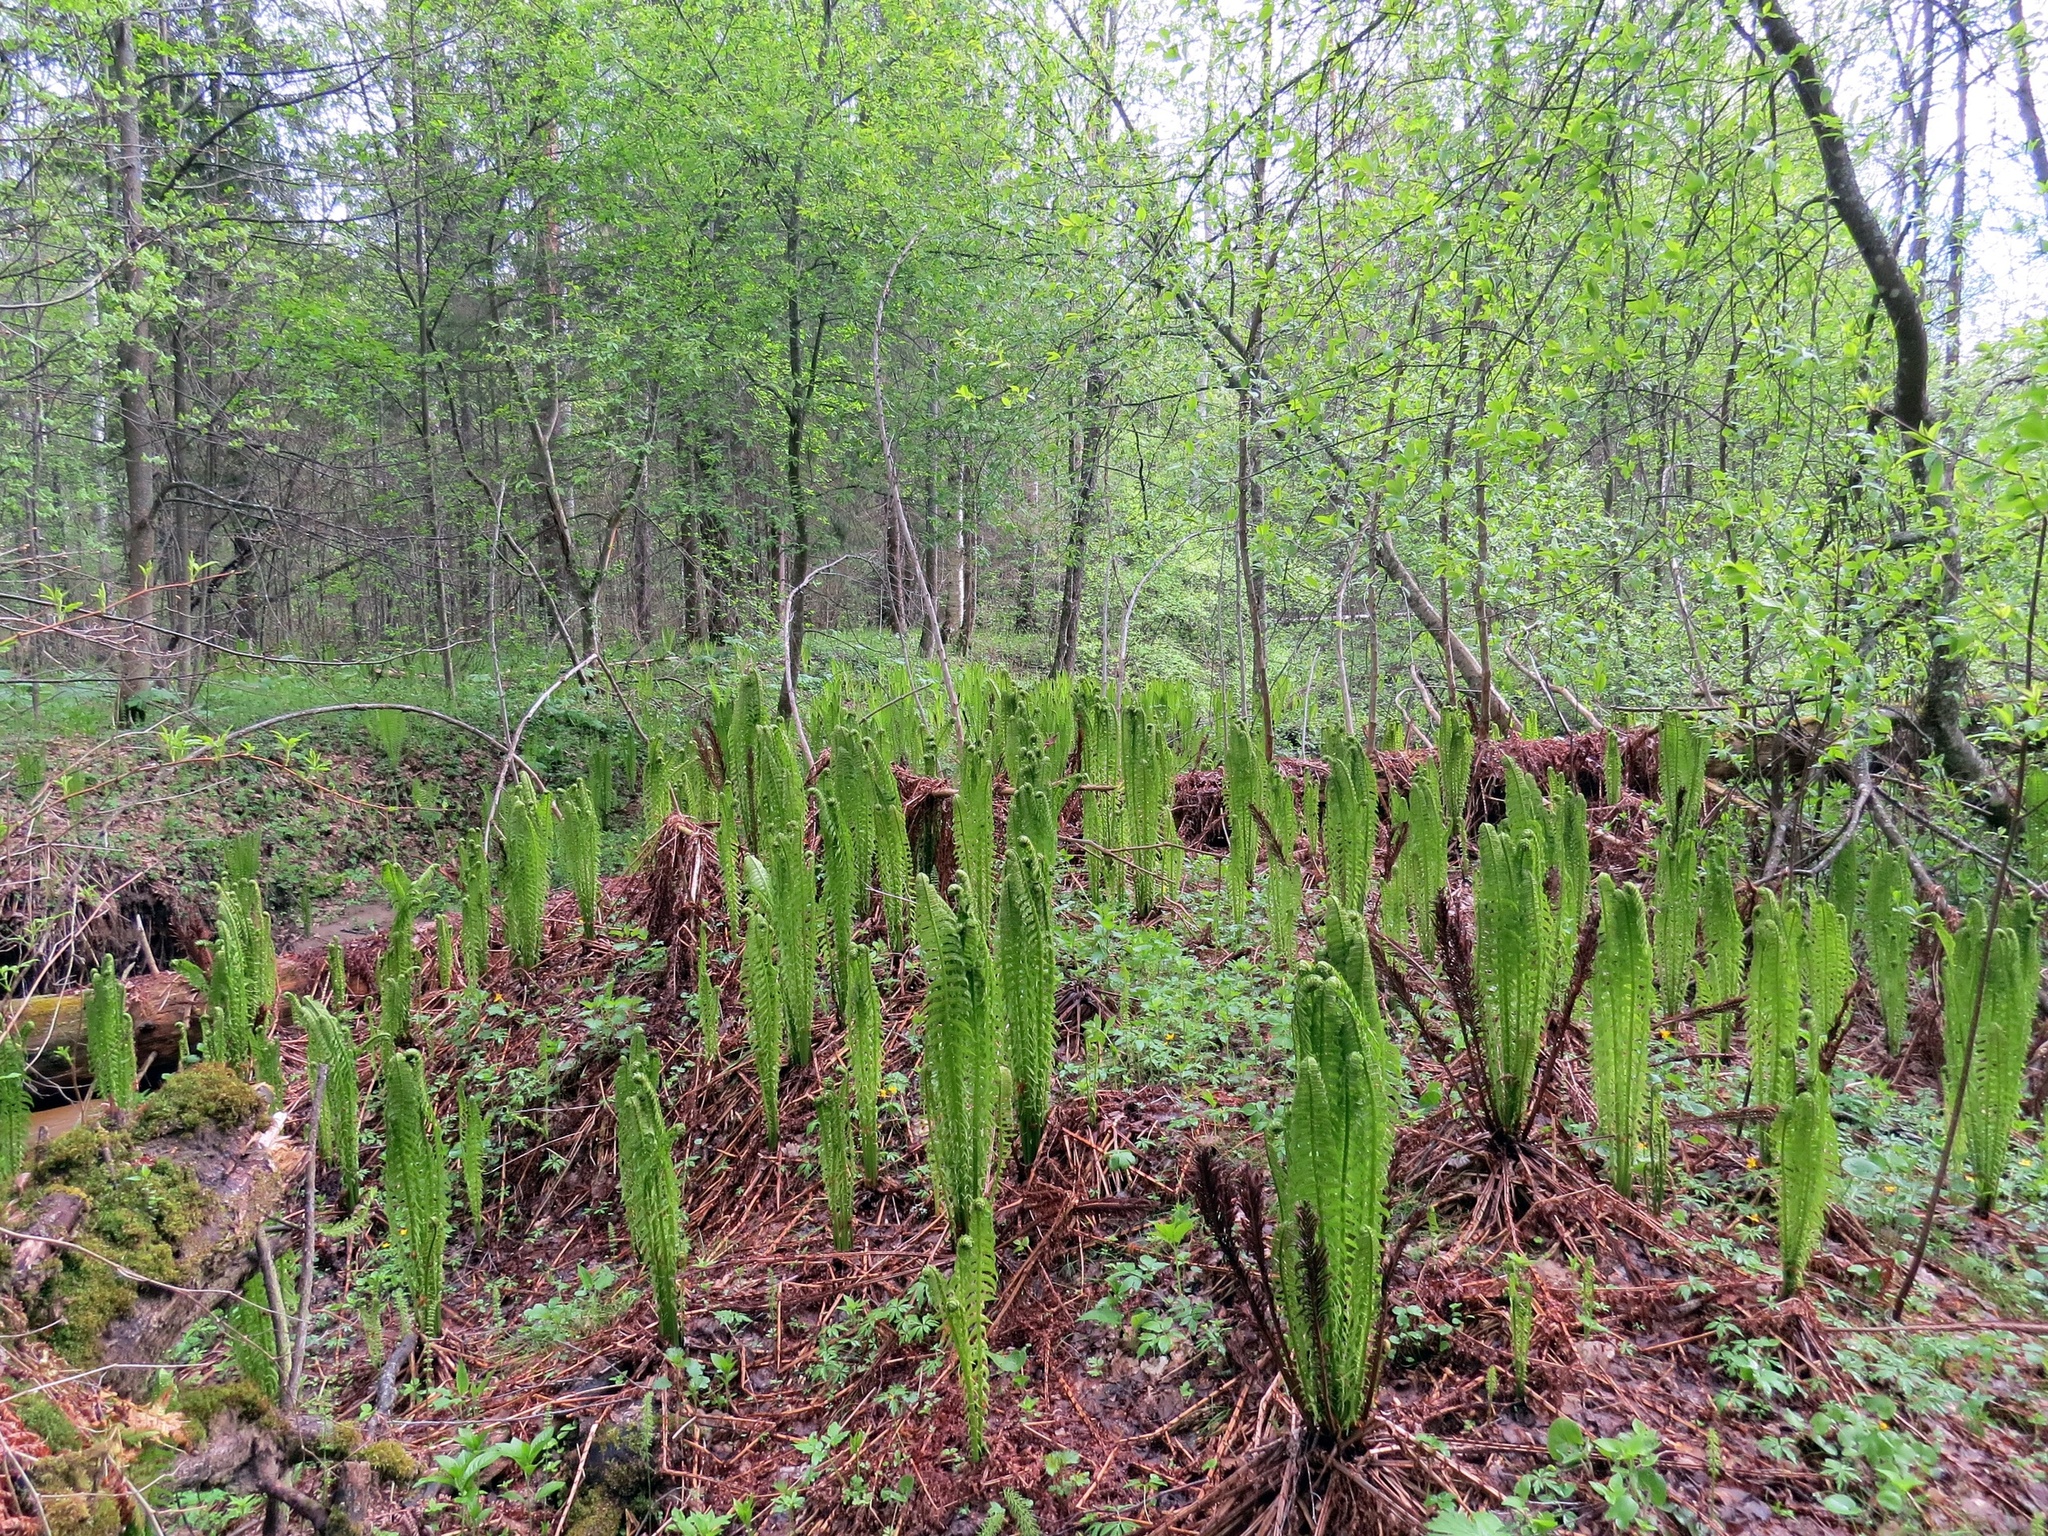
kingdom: Plantae
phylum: Tracheophyta
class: Polypodiopsida
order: Polypodiales
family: Onocleaceae
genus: Matteuccia
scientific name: Matteuccia struthiopteris
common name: Ostrich fern
